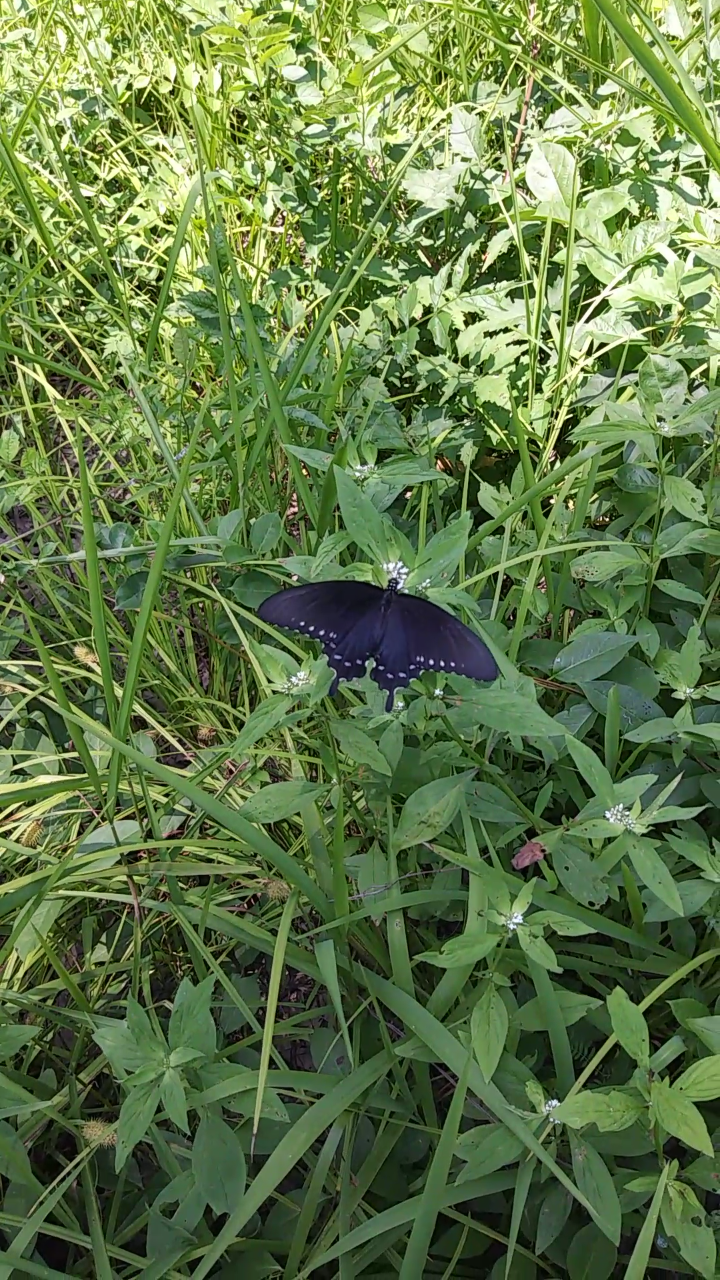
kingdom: Animalia
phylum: Arthropoda
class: Insecta
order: Lepidoptera
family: Papilionidae
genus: Battus
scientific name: Battus philenor
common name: Pipevine swallowtail
